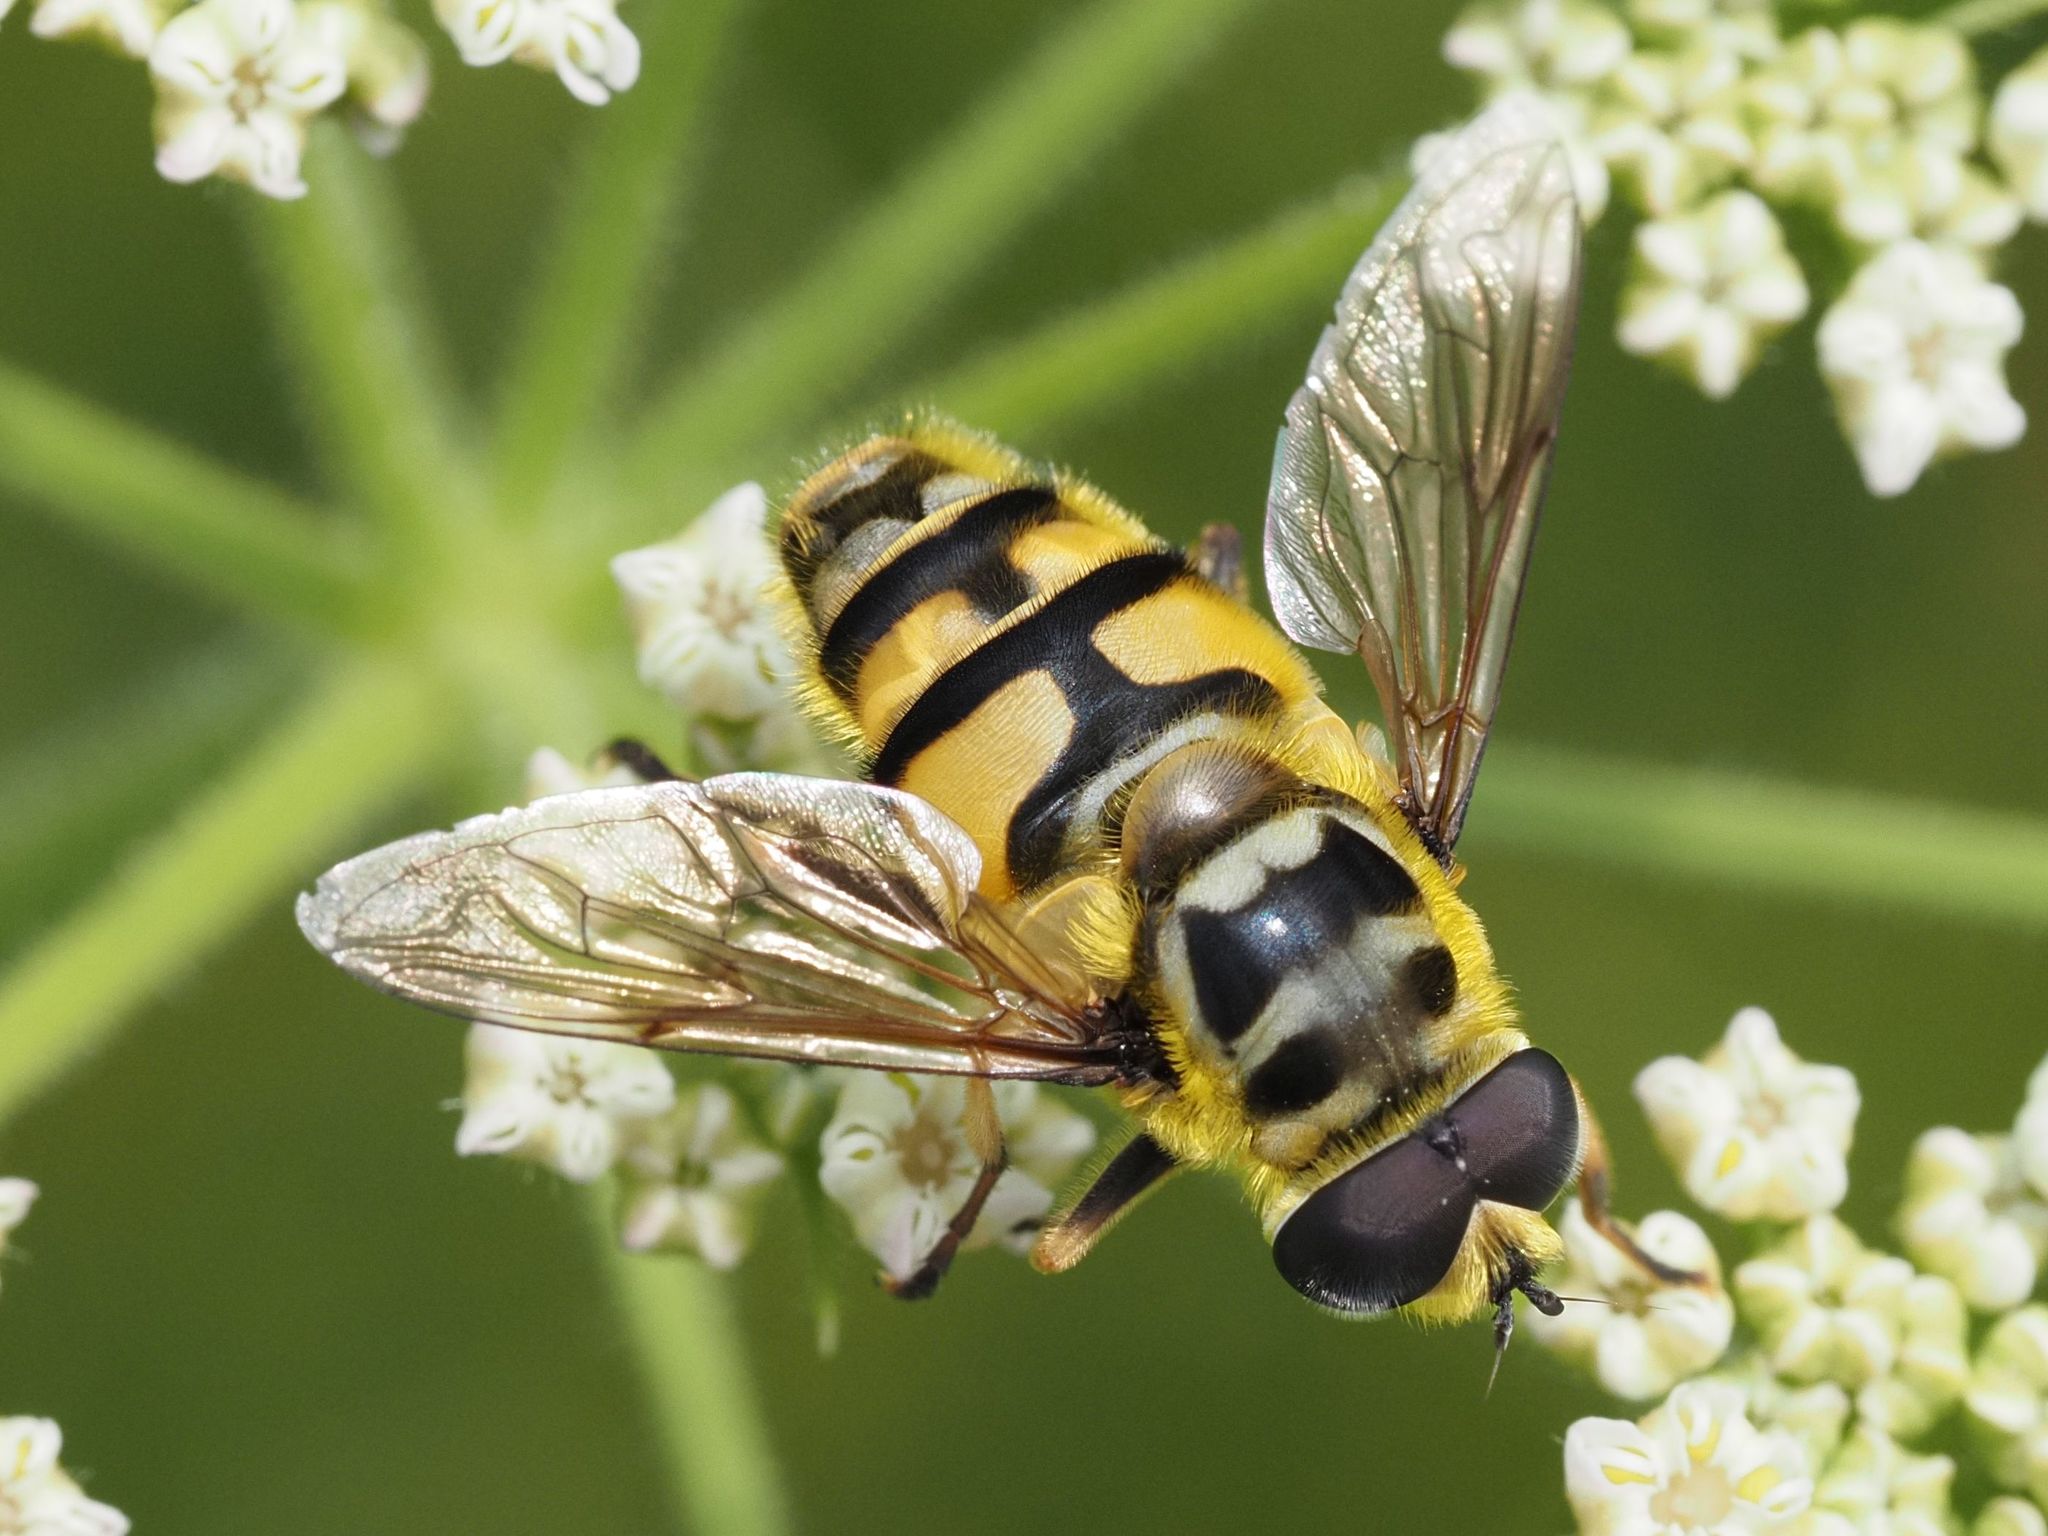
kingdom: Animalia
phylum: Arthropoda
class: Insecta
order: Diptera
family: Syrphidae
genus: Myathropa
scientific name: Myathropa florea
